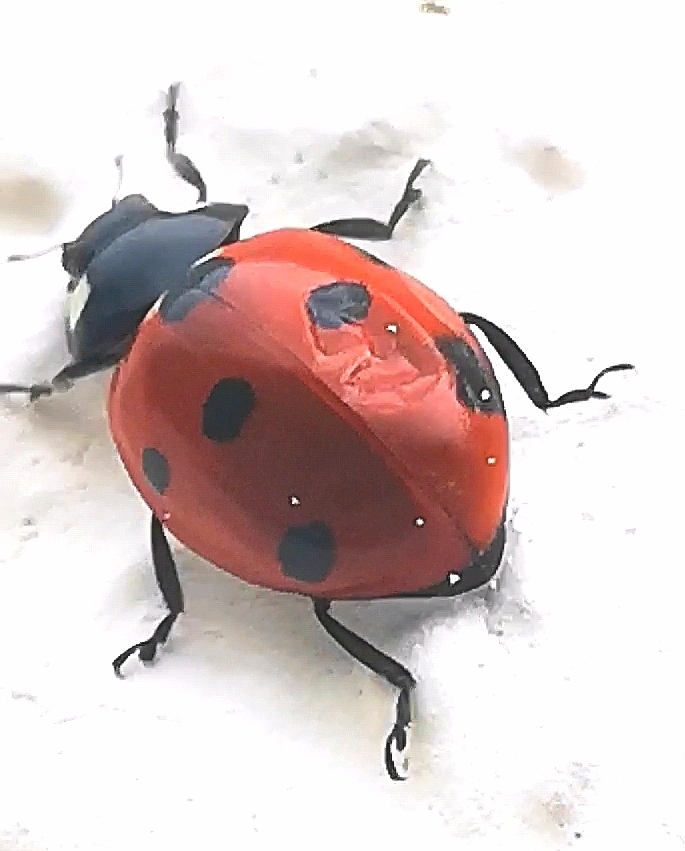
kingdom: Animalia
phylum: Arthropoda
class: Insecta
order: Coleoptera
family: Coccinellidae
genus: Coccinella
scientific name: Coccinella septempunctata
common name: Sevenspotted lady beetle
